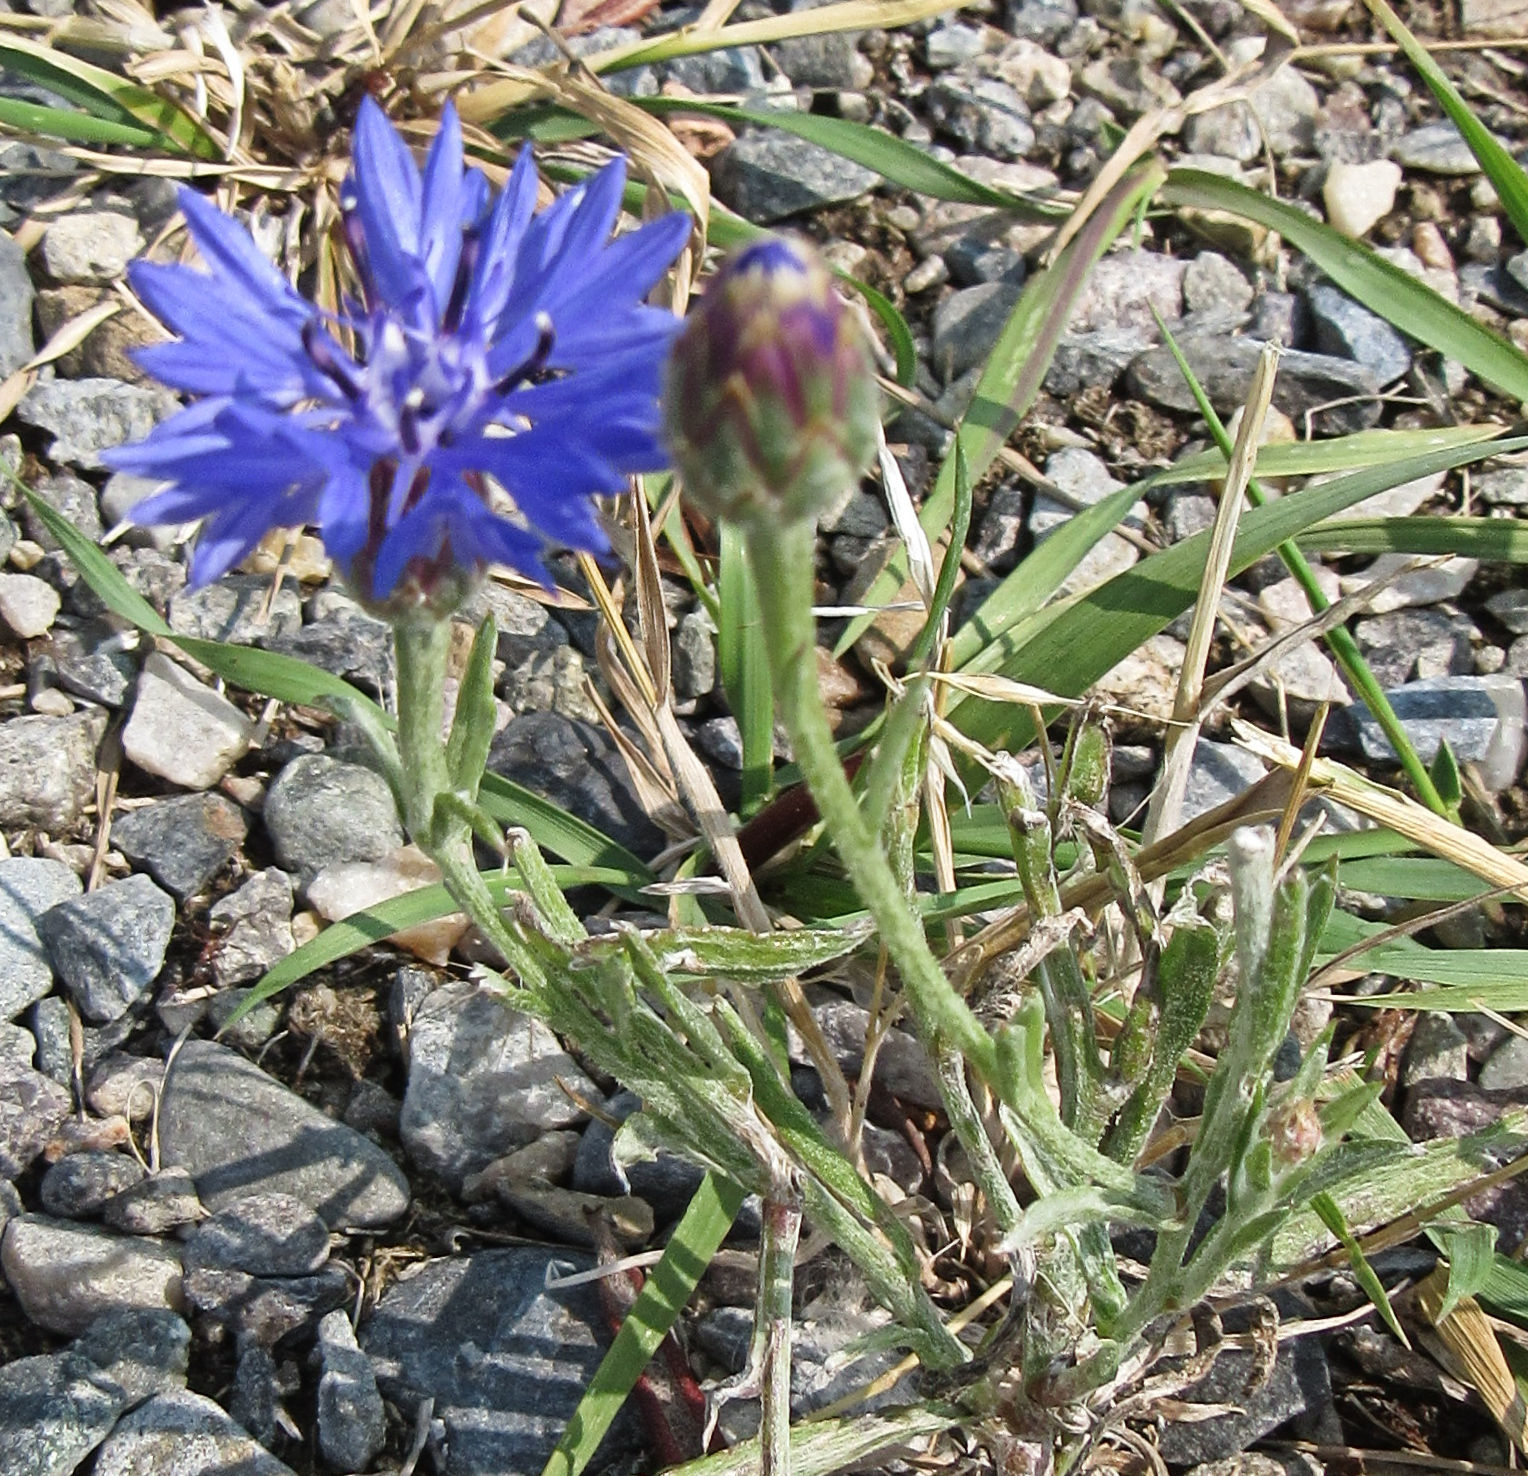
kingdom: Plantae
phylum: Tracheophyta
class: Magnoliopsida
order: Asterales
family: Asteraceae
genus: Centaurea
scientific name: Centaurea cyanus
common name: Cornflower
